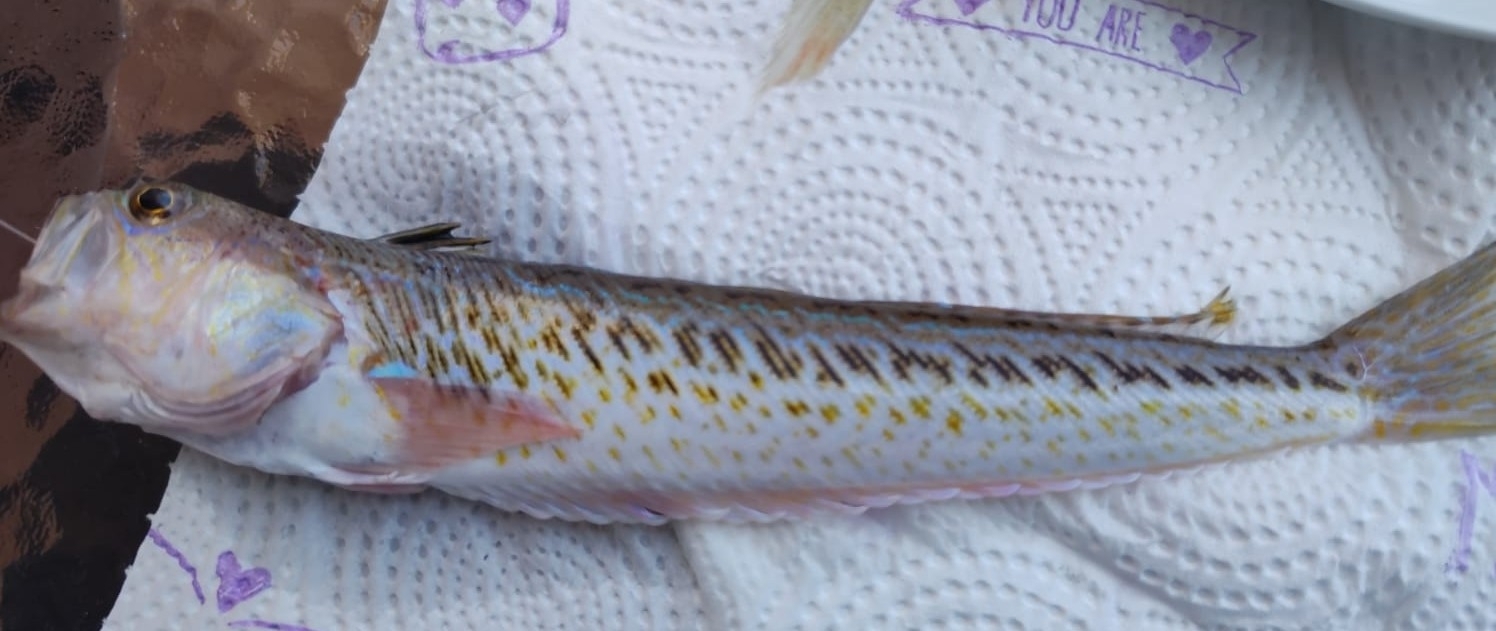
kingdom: Animalia
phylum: Chordata
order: Perciformes
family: Trachinidae
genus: Trachinus
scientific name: Trachinus draco
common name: Greater weever
